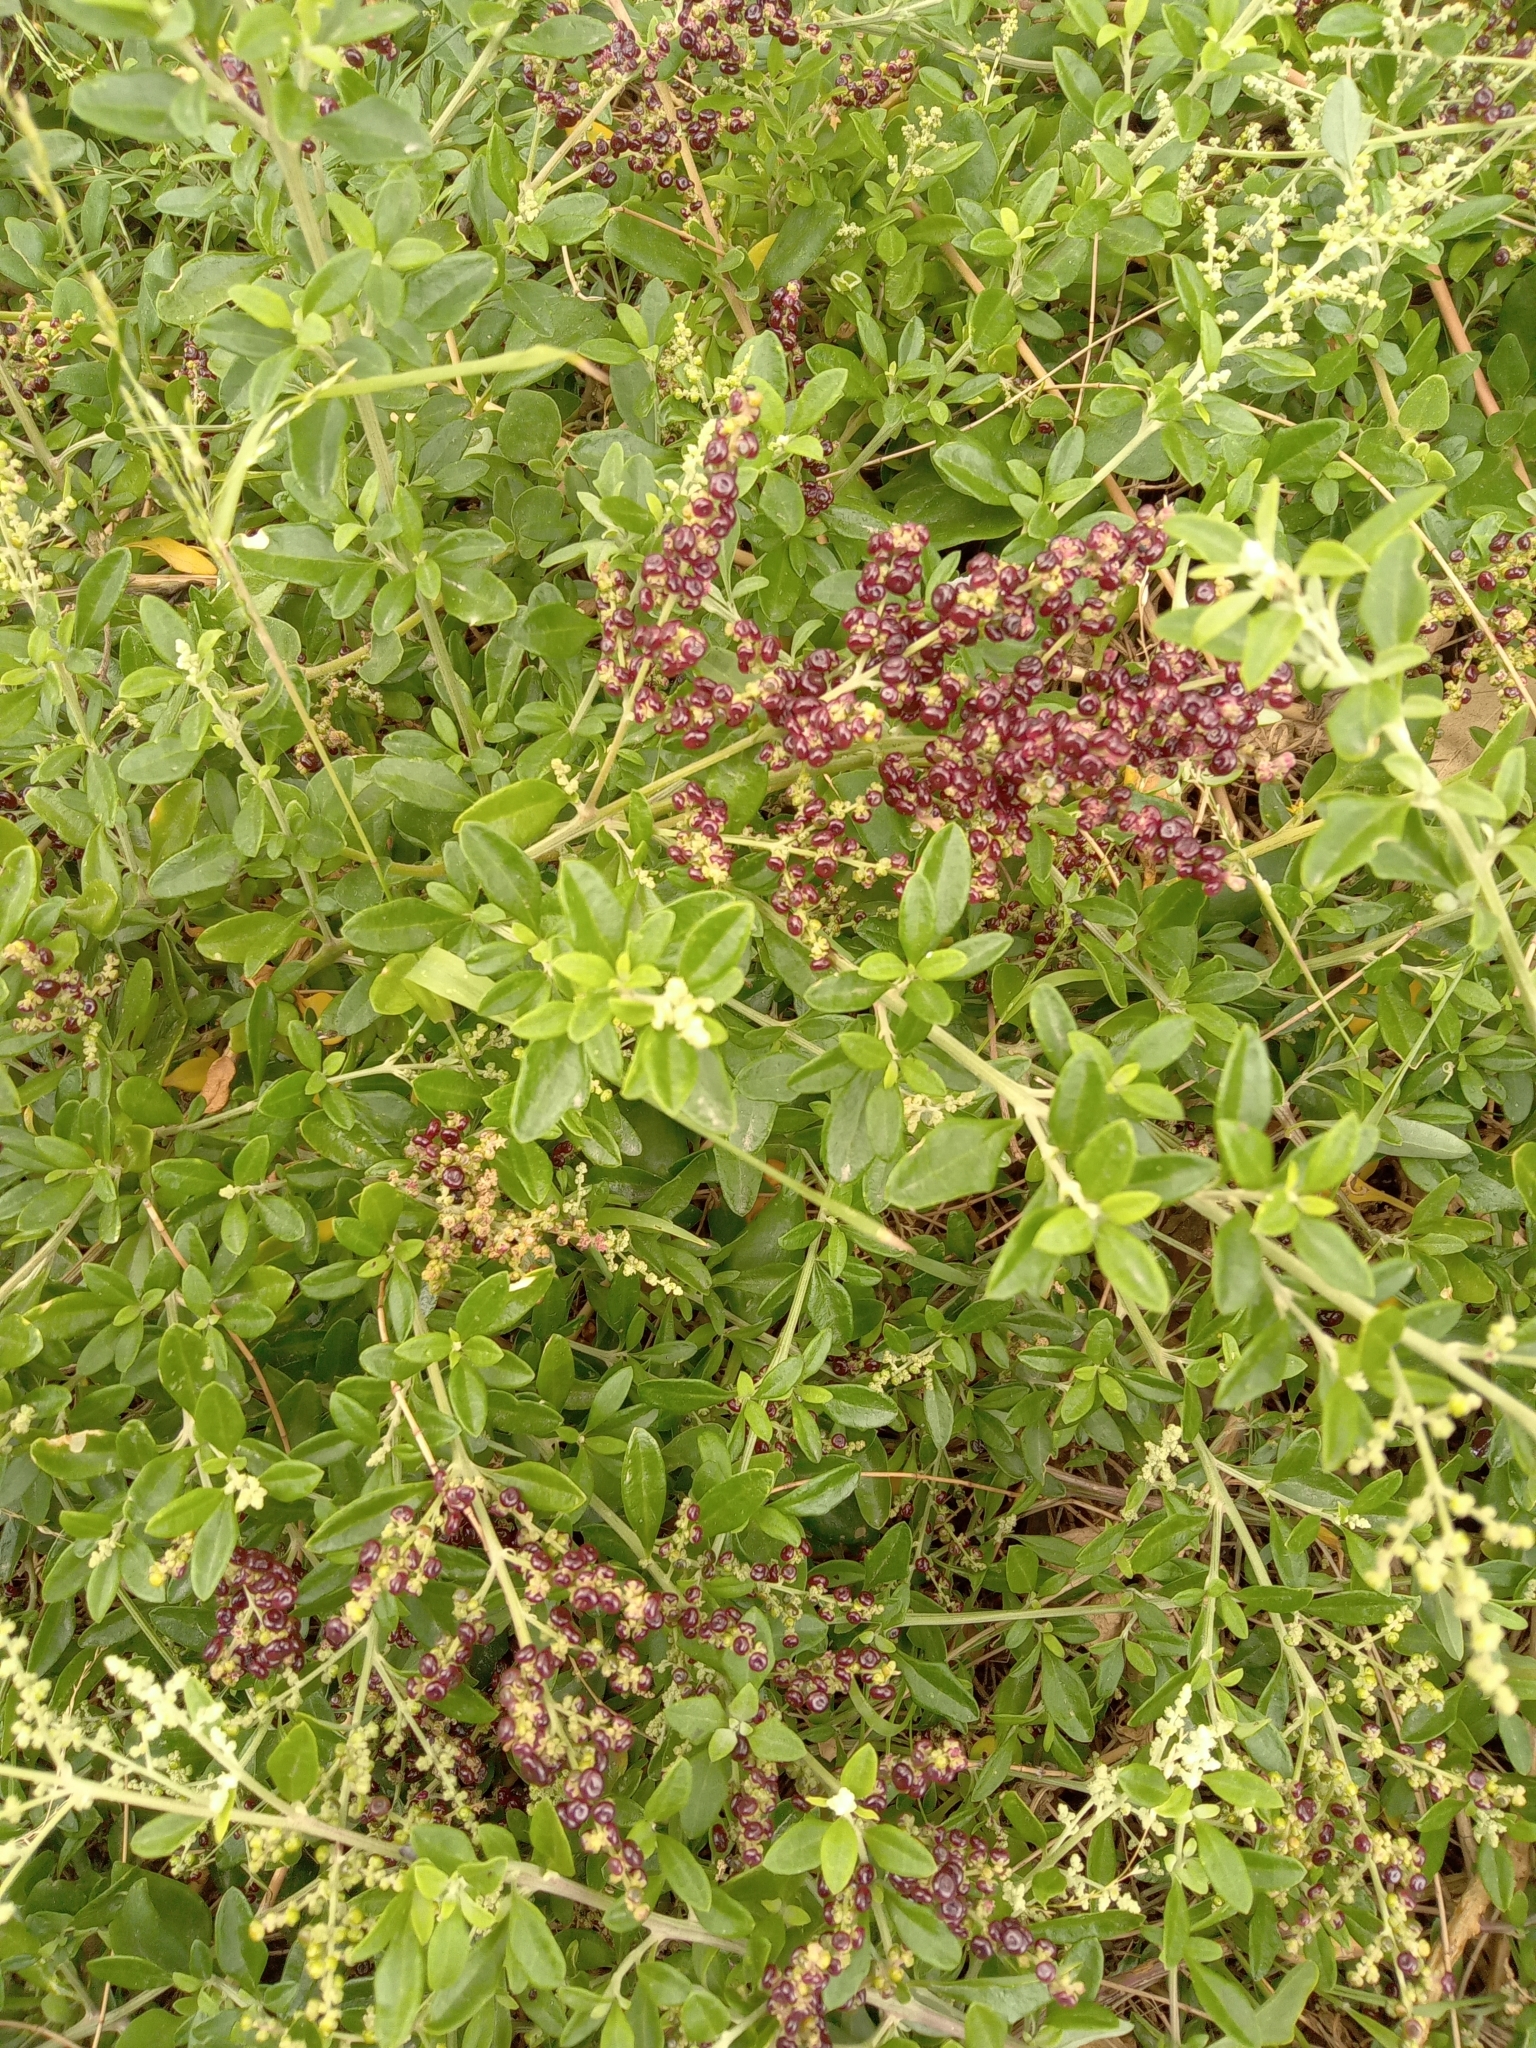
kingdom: Plantae
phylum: Tracheophyta
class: Magnoliopsida
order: Caryophyllales
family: Amaranthaceae
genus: Chenopodium
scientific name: Chenopodium candolleanum
